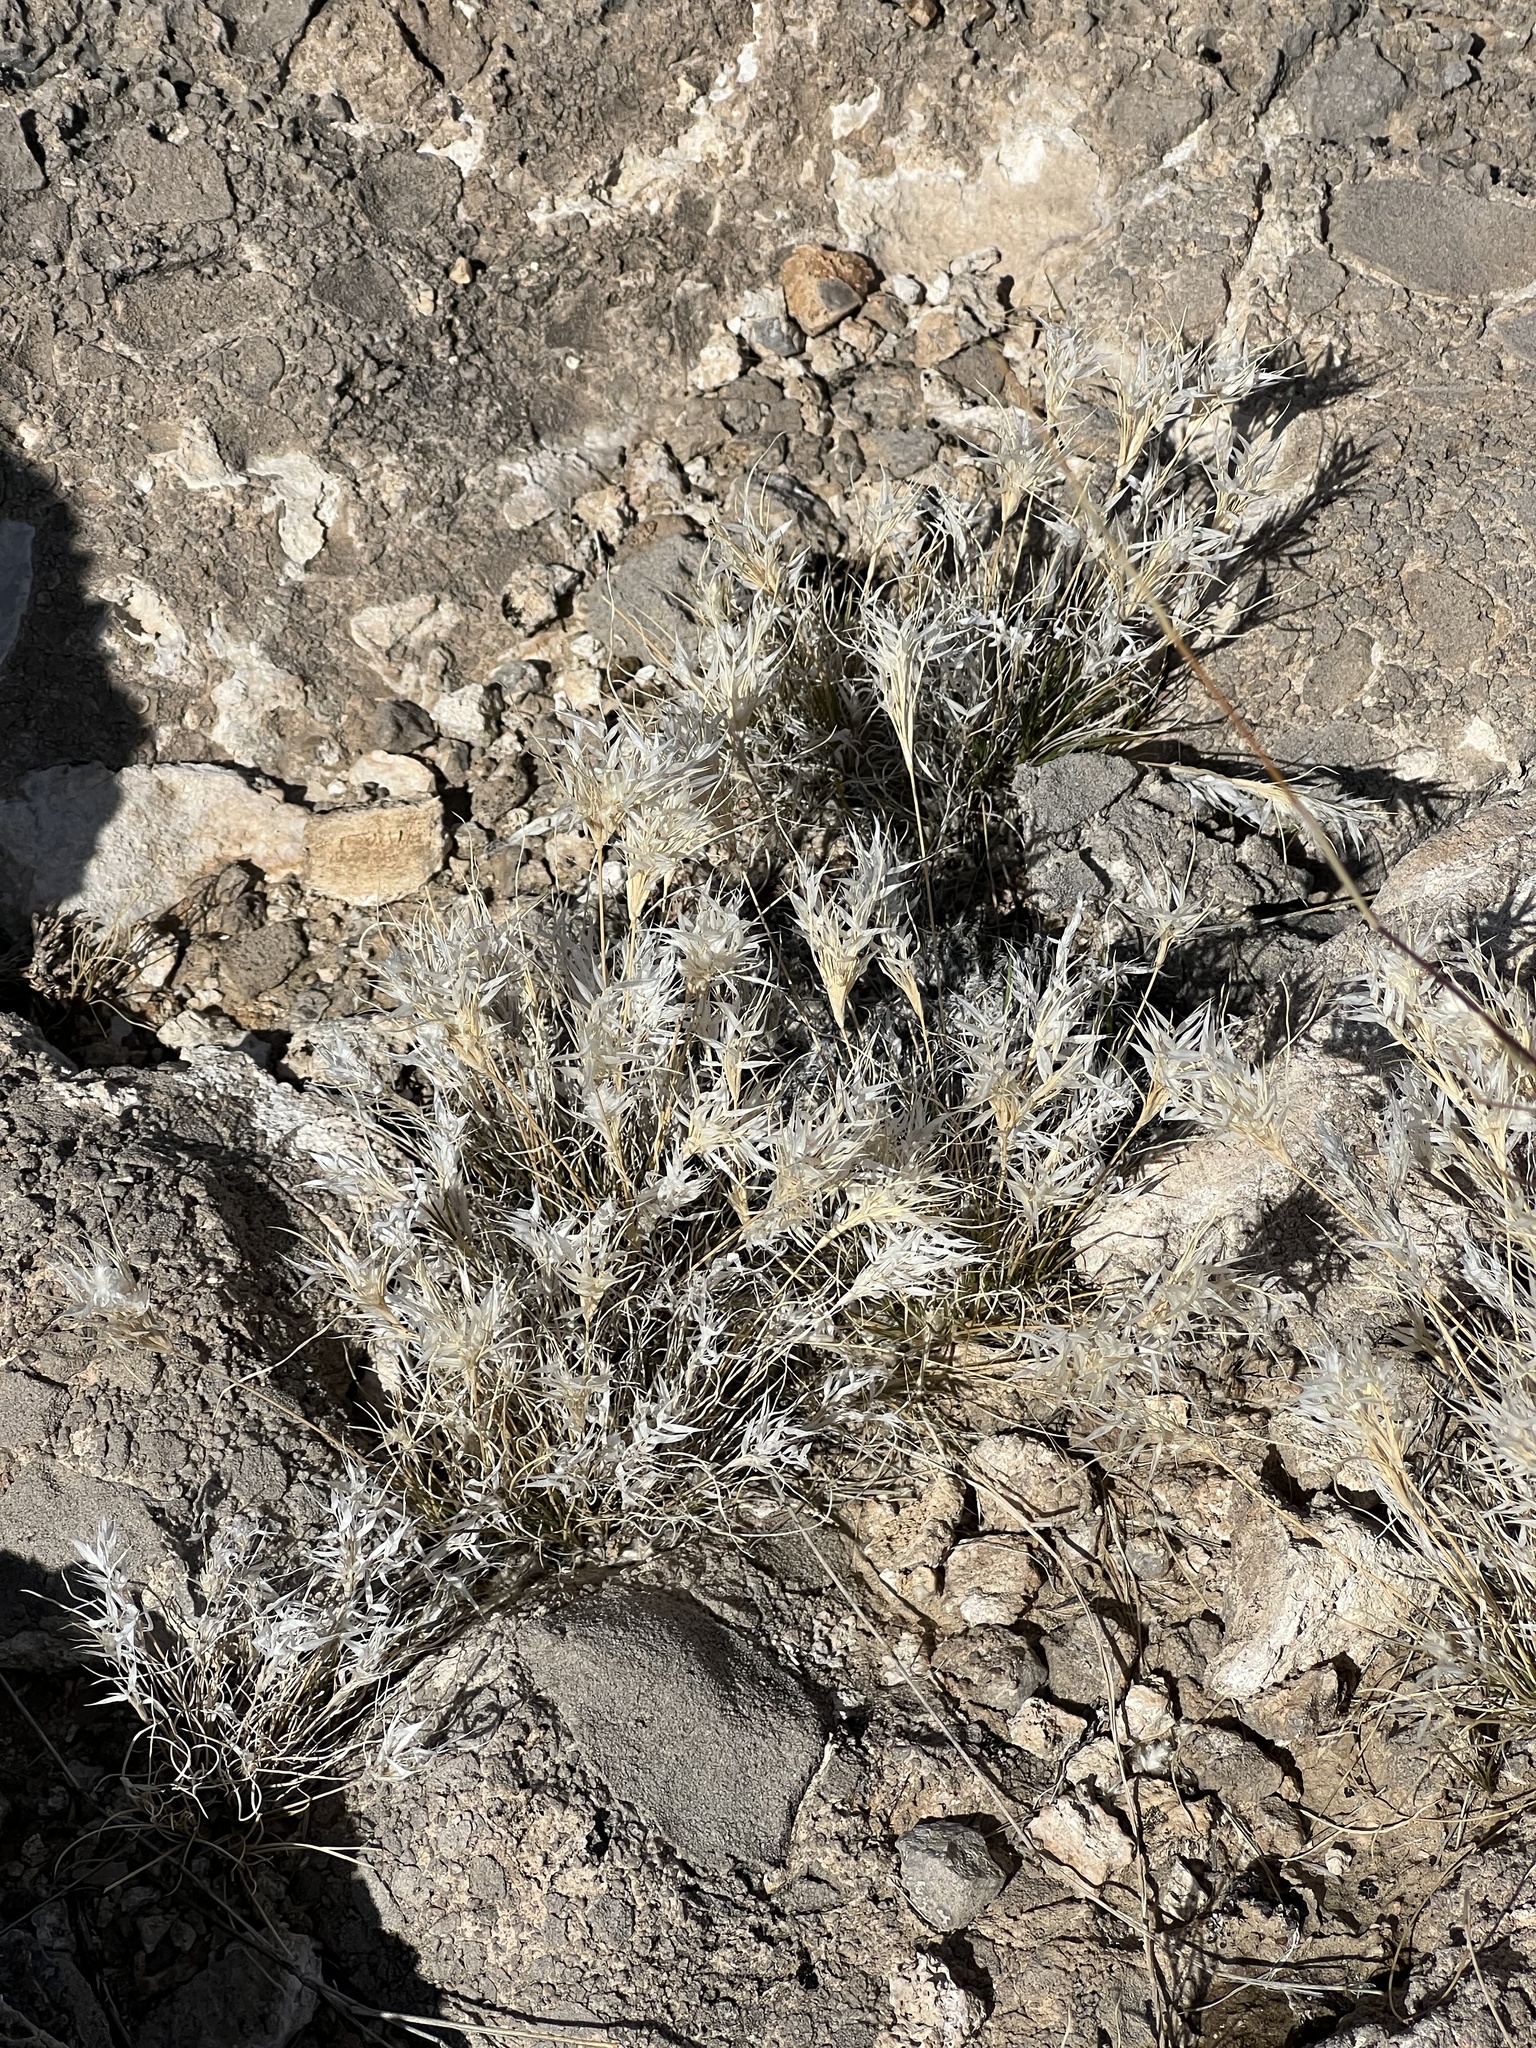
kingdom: Plantae
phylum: Tracheophyta
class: Liliopsida
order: Poales
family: Poaceae
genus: Dasyochloa
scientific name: Dasyochloa pulchella
